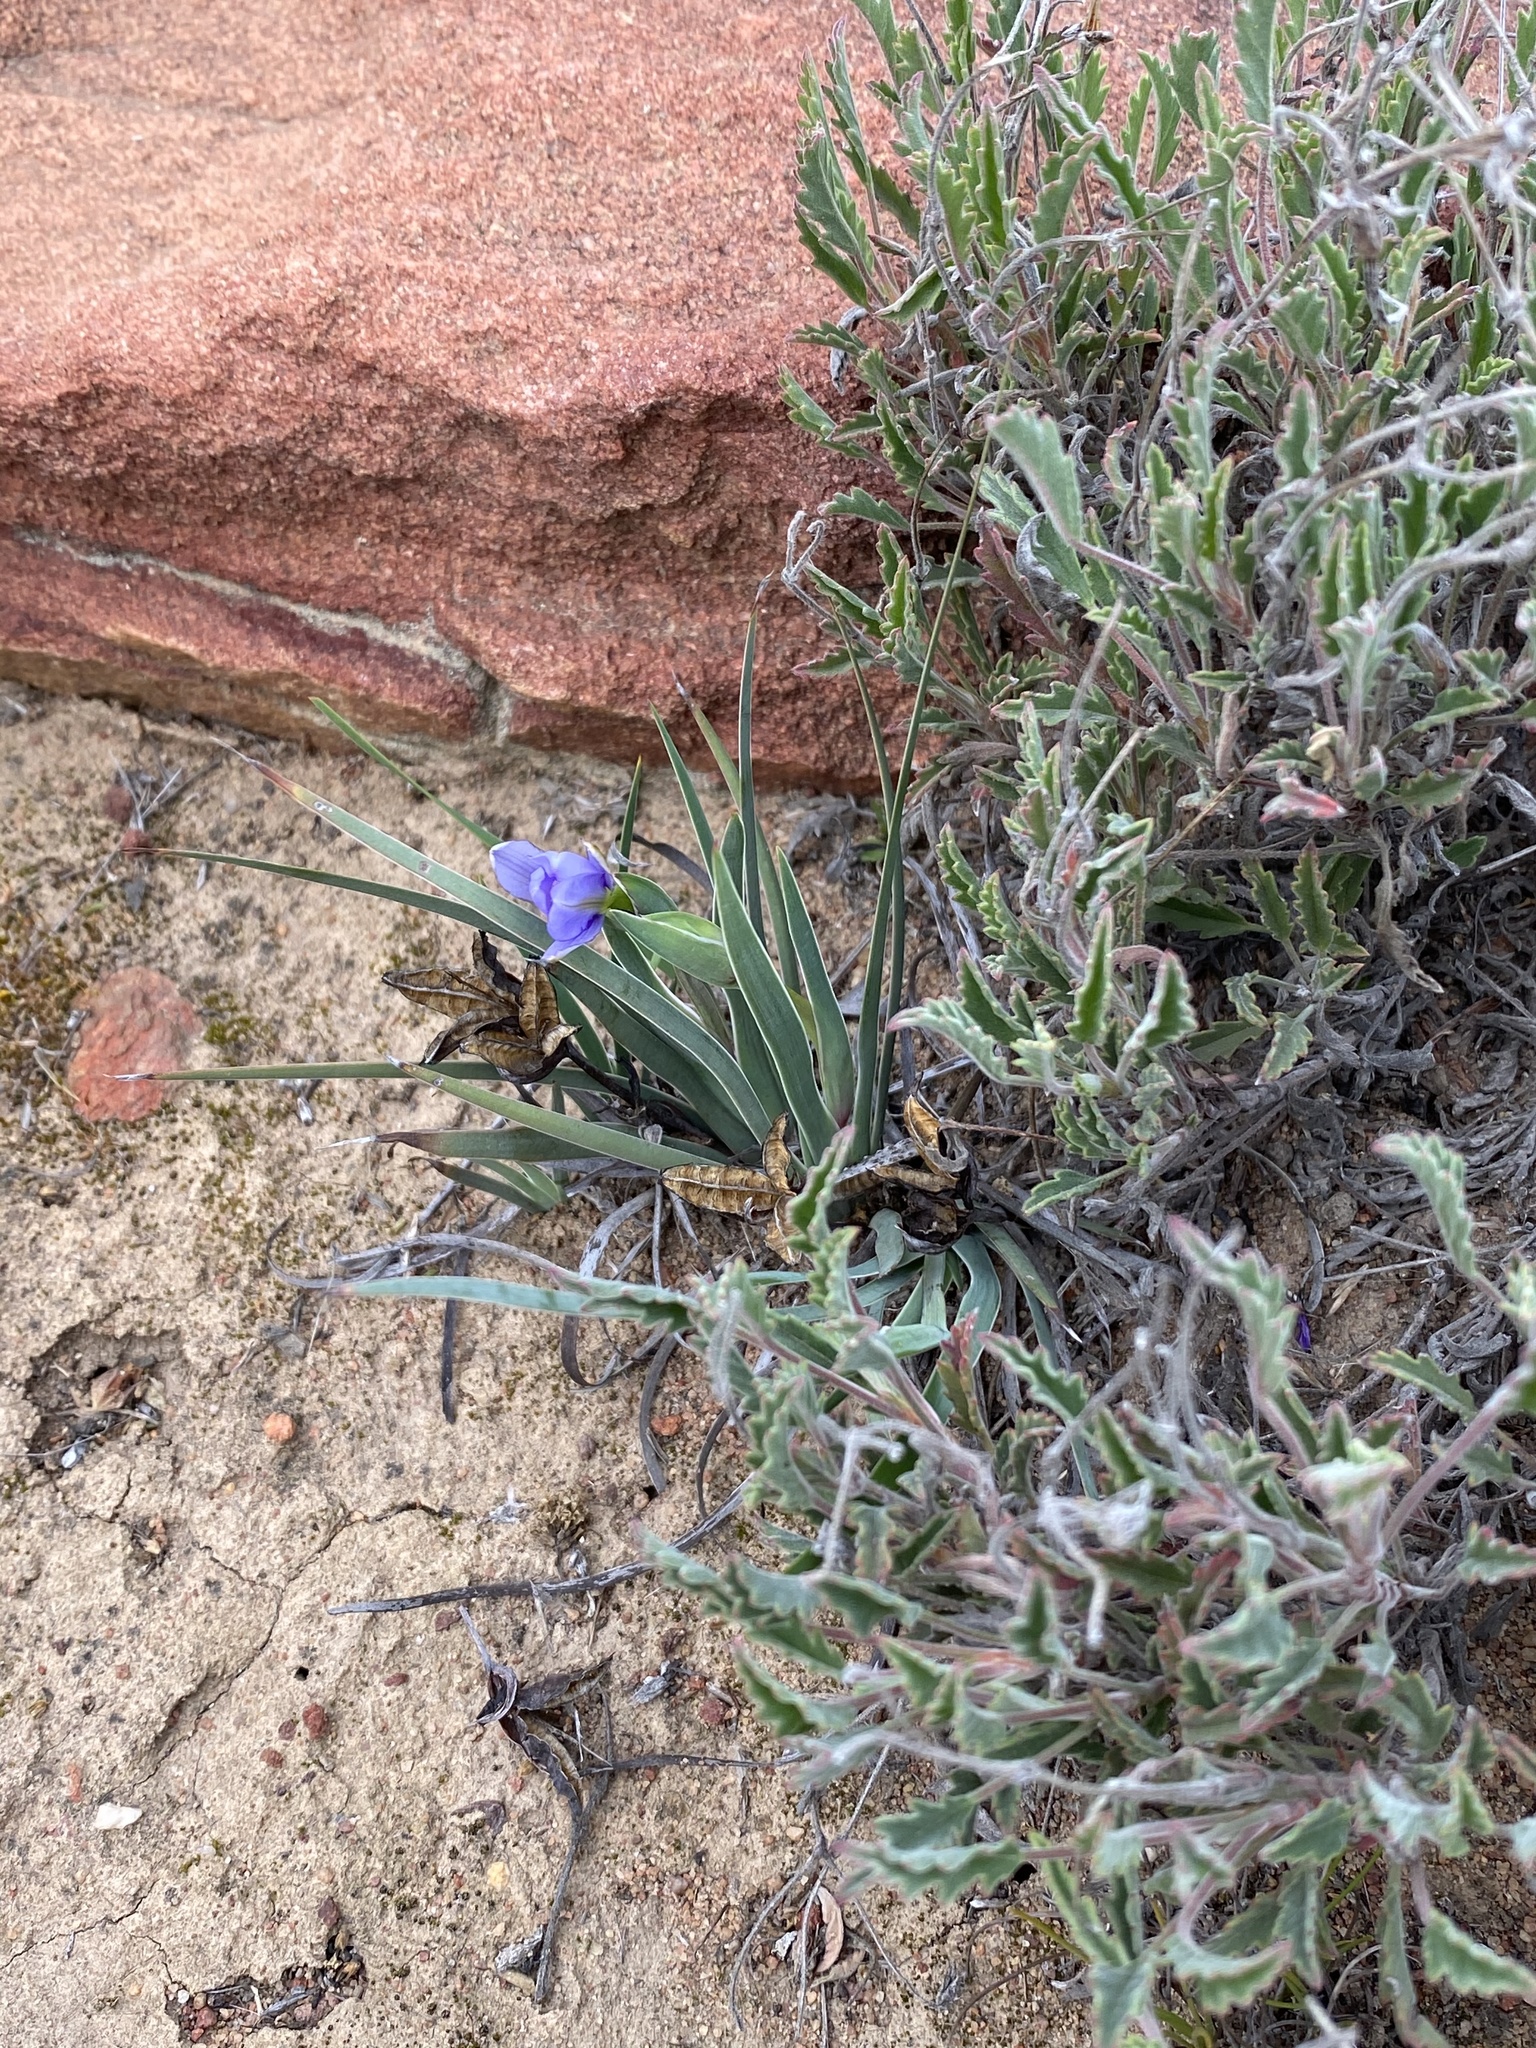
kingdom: Plantae
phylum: Tracheophyta
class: Liliopsida
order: Asparagales
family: Iridaceae
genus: Aristea
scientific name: Aristea nana
